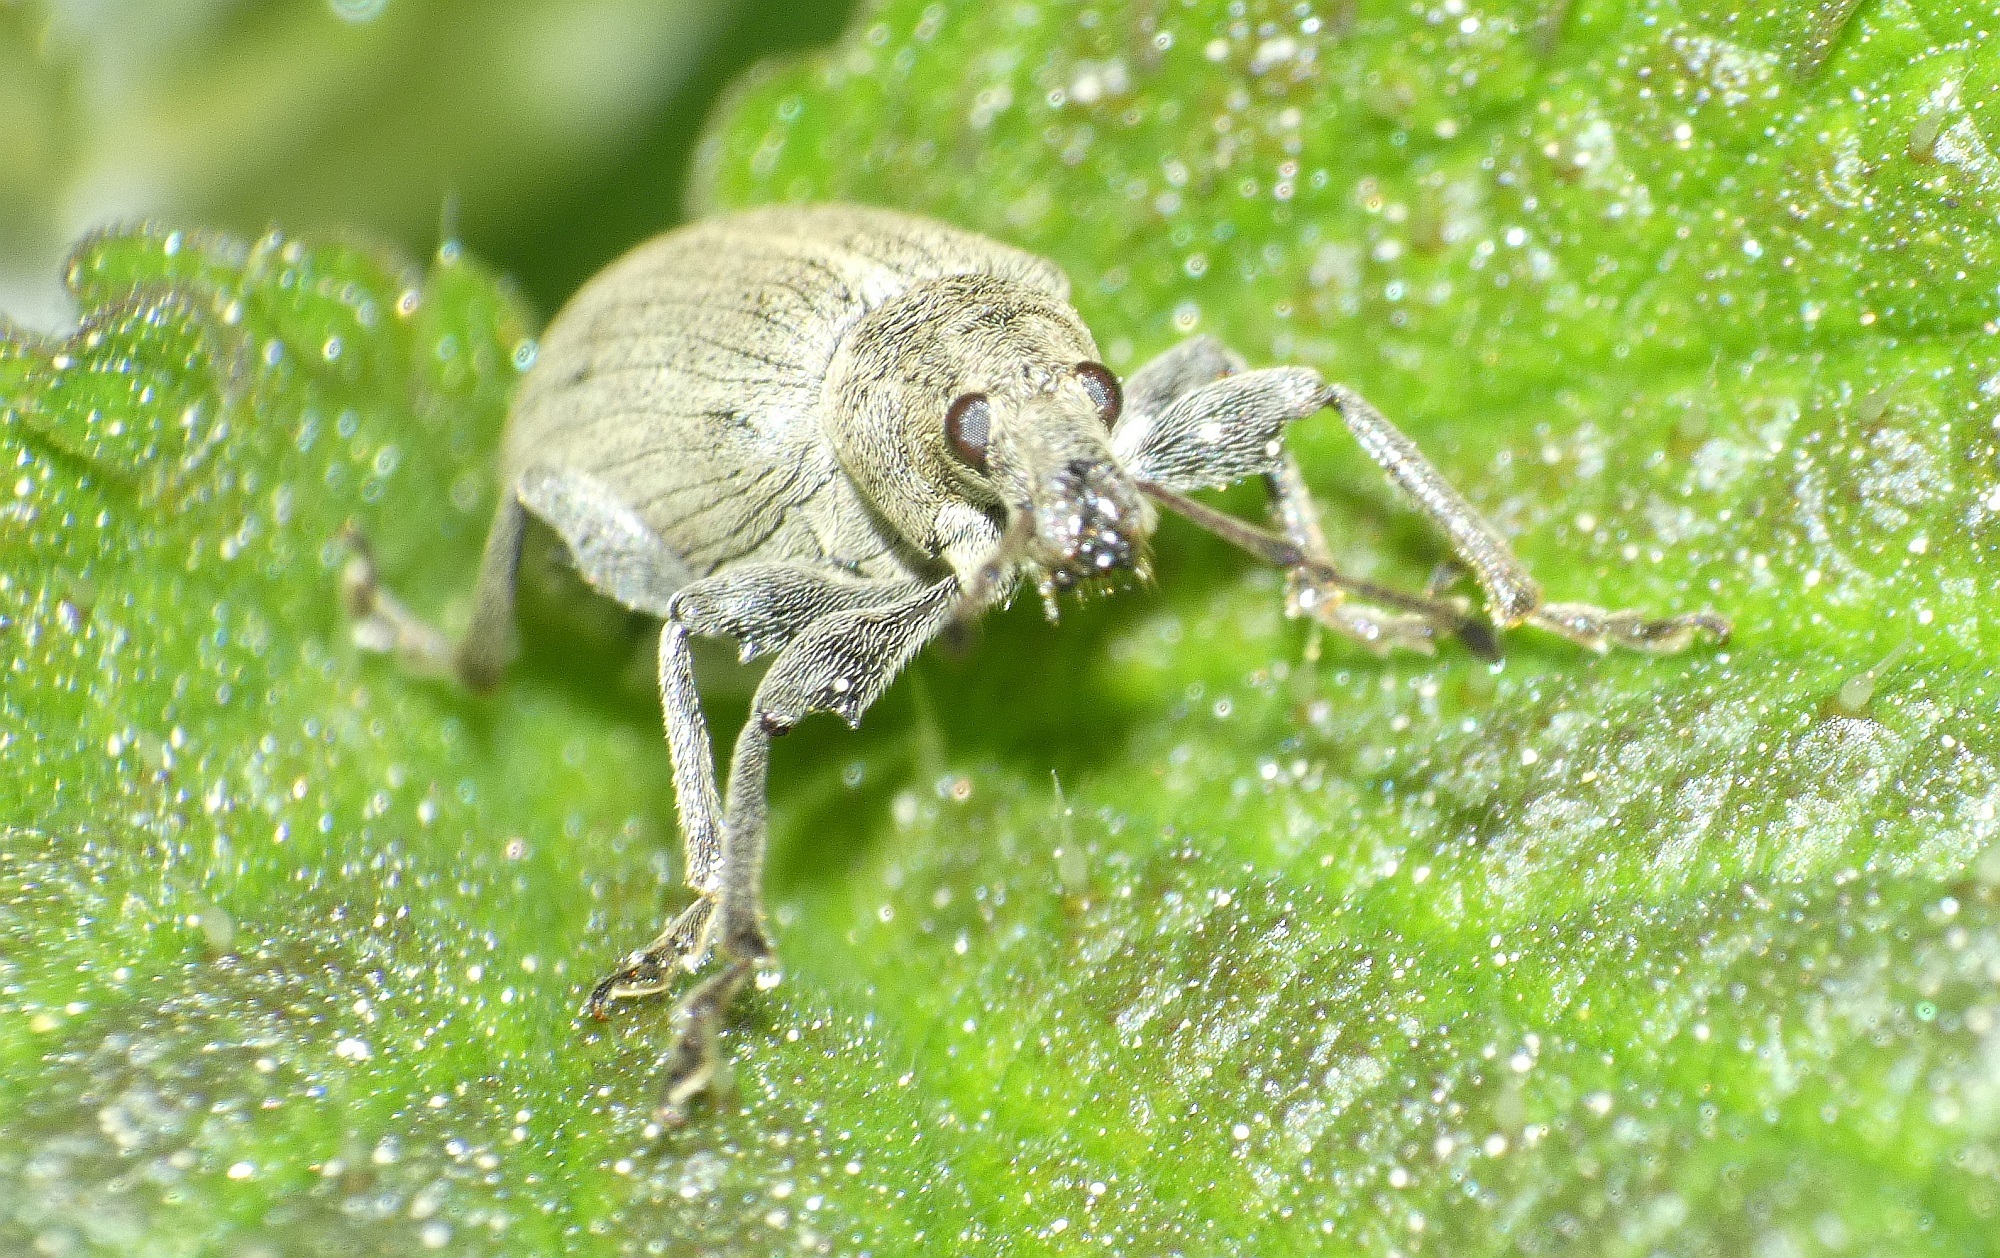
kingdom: Animalia
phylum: Arthropoda
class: Insecta
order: Coleoptera
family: Curculionidae
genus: Phyllobius
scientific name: Phyllobius pomaceus
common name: Green nettle weevil
